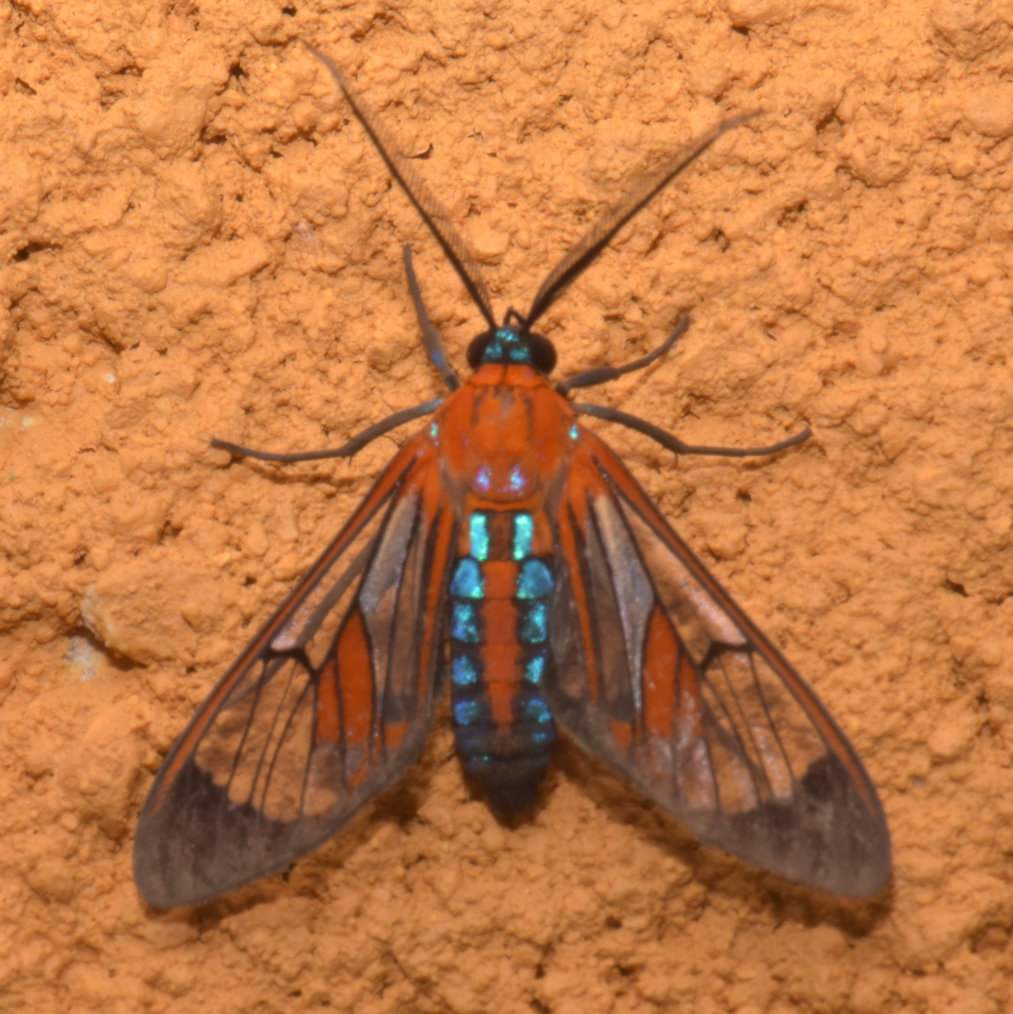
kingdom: Animalia
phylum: Arthropoda
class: Insecta
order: Lepidoptera
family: Erebidae
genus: Cosmosoma
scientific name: Cosmosoma achemon
